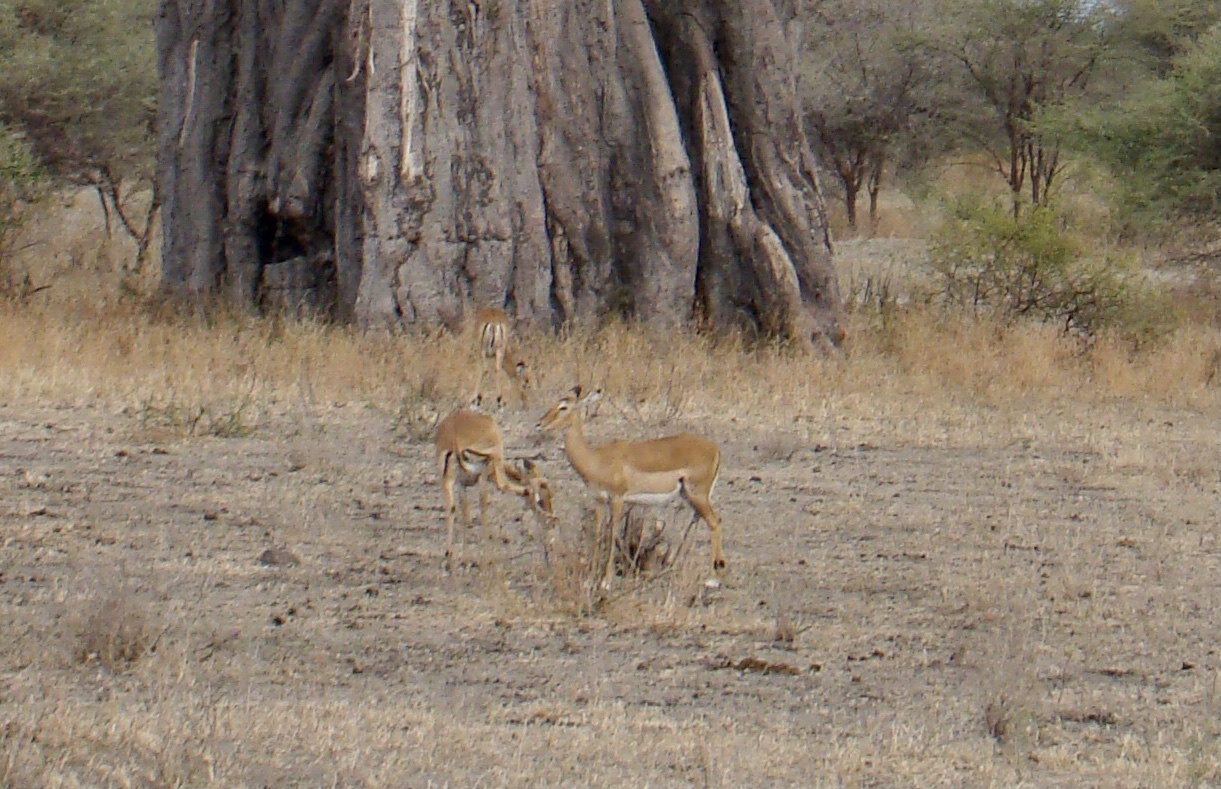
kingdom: Animalia
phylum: Chordata
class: Mammalia
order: Artiodactyla
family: Bovidae
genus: Aepyceros
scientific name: Aepyceros melampus
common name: Impala
